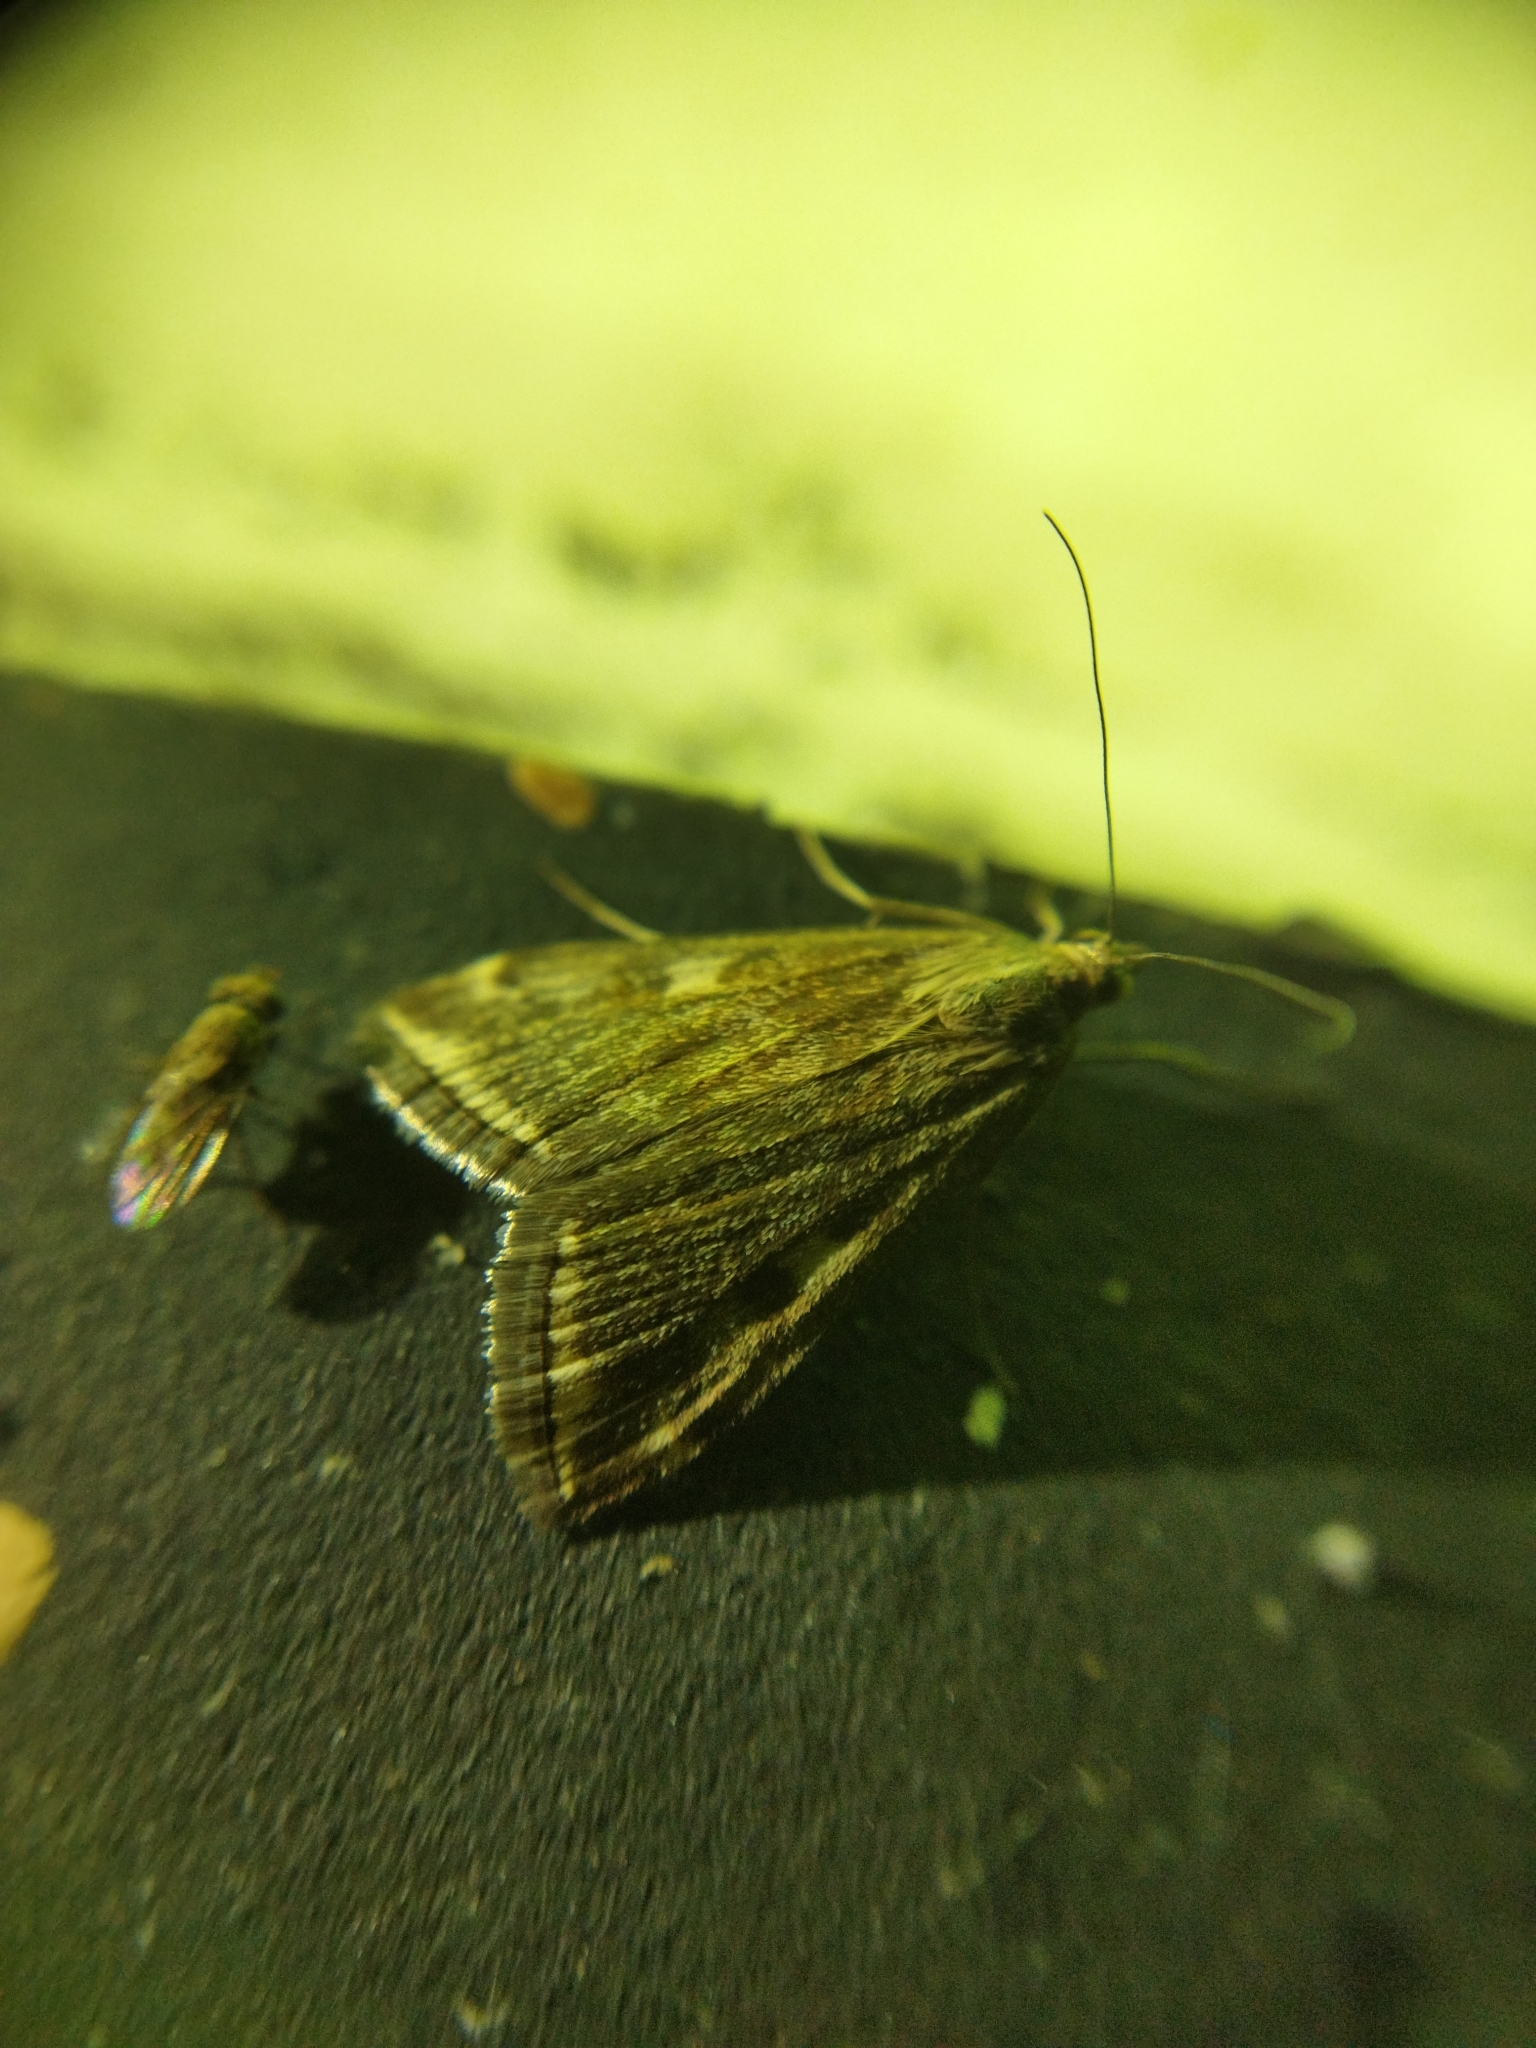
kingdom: Animalia
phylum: Arthropoda
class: Insecta
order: Lepidoptera
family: Crambidae
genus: Loxostege
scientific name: Loxostege sticticalis
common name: Crambid moth
